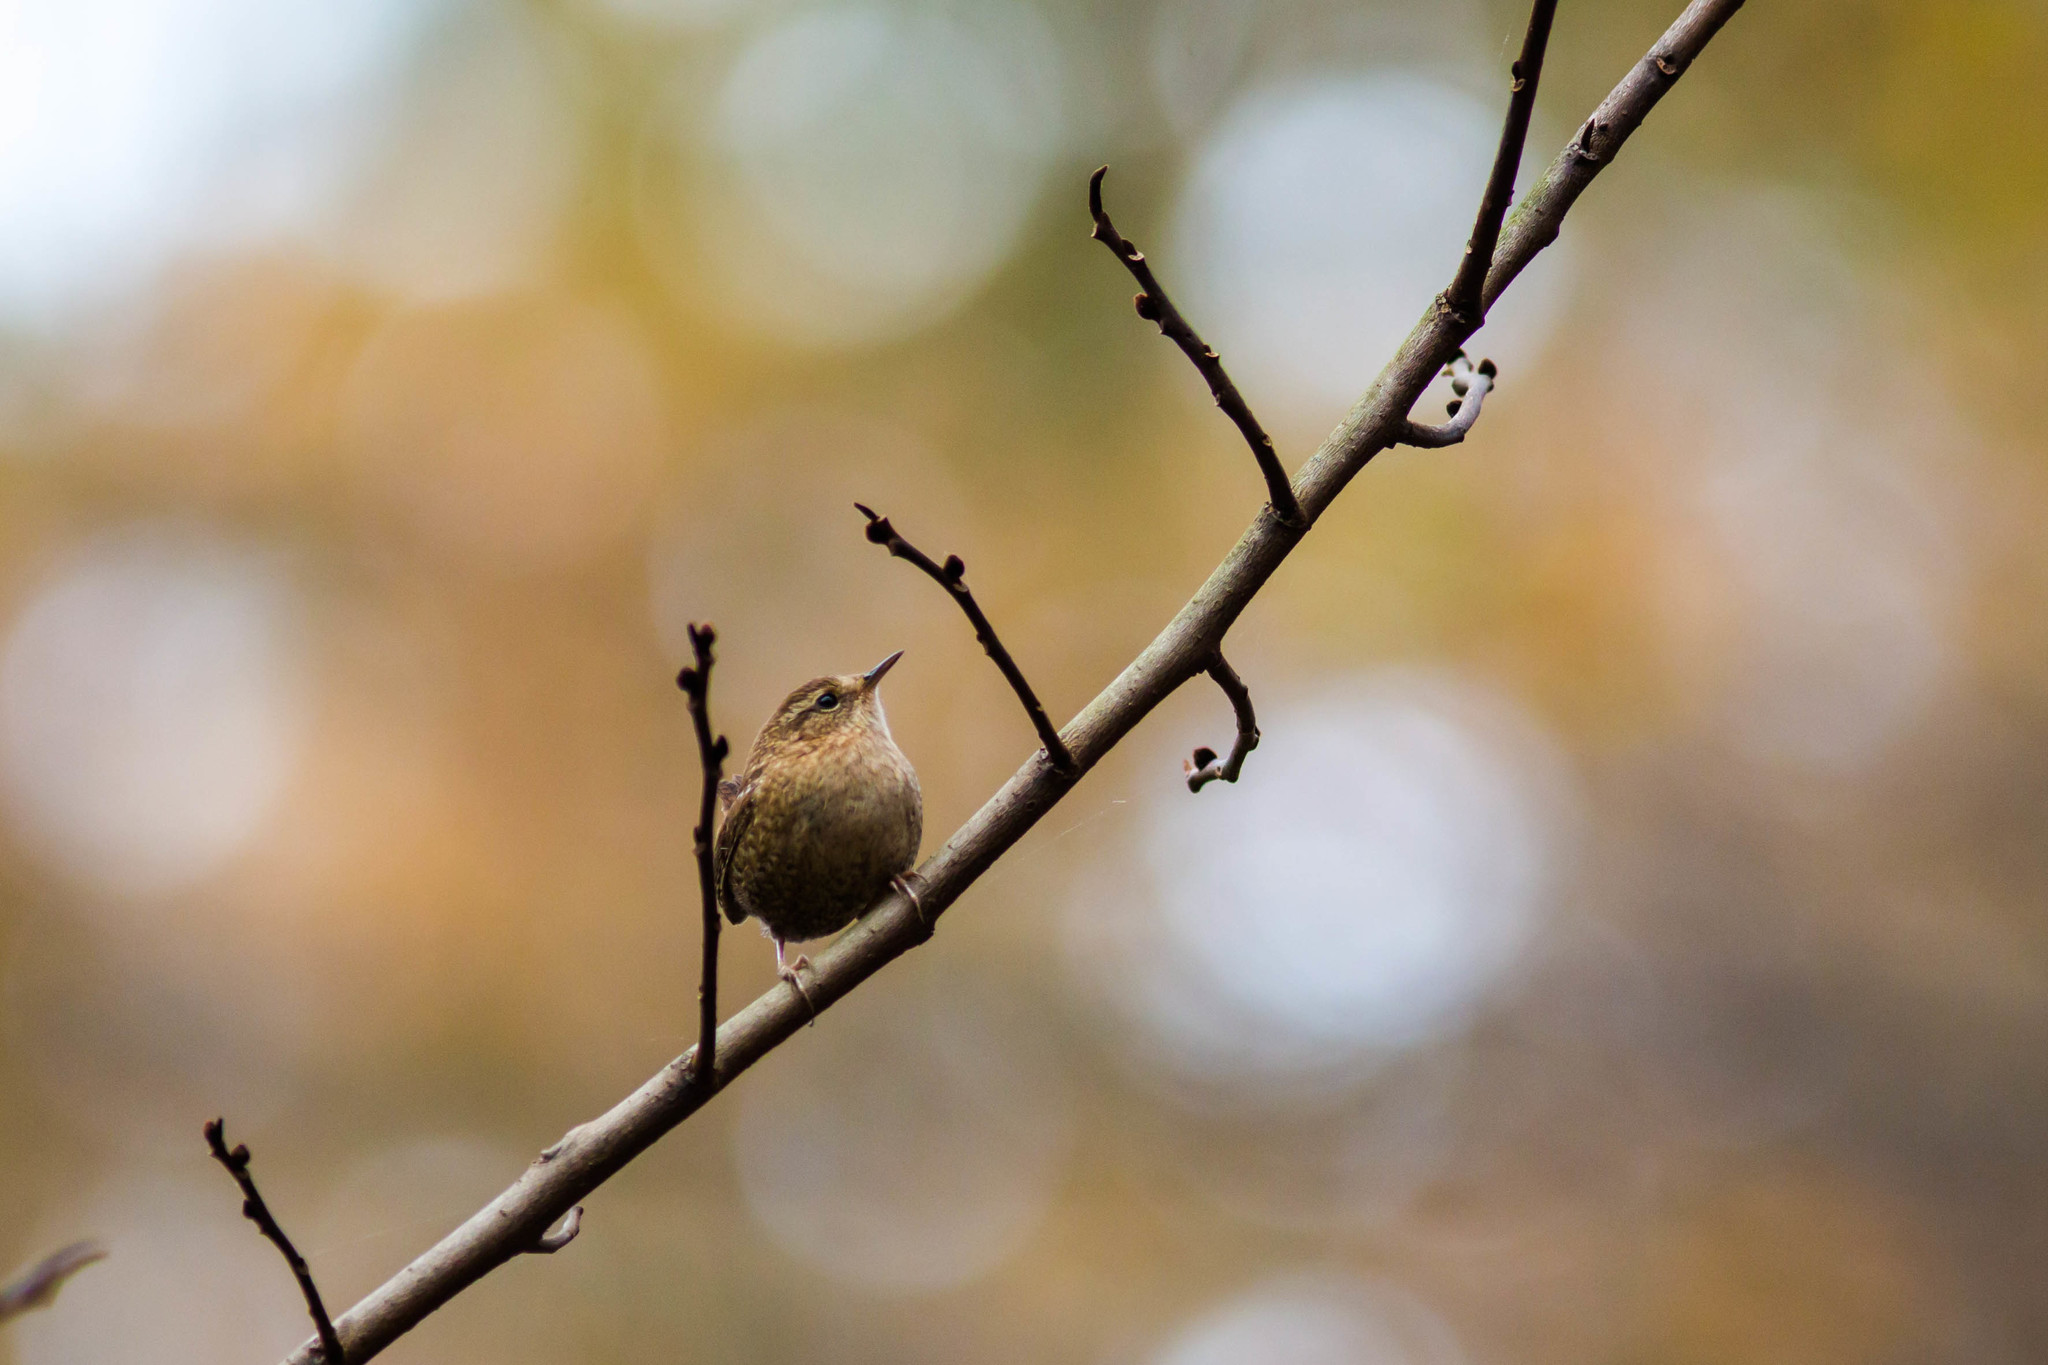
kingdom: Animalia
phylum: Chordata
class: Aves
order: Passeriformes
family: Troglodytidae
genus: Troglodytes
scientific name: Troglodytes hiemalis
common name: Winter wren
